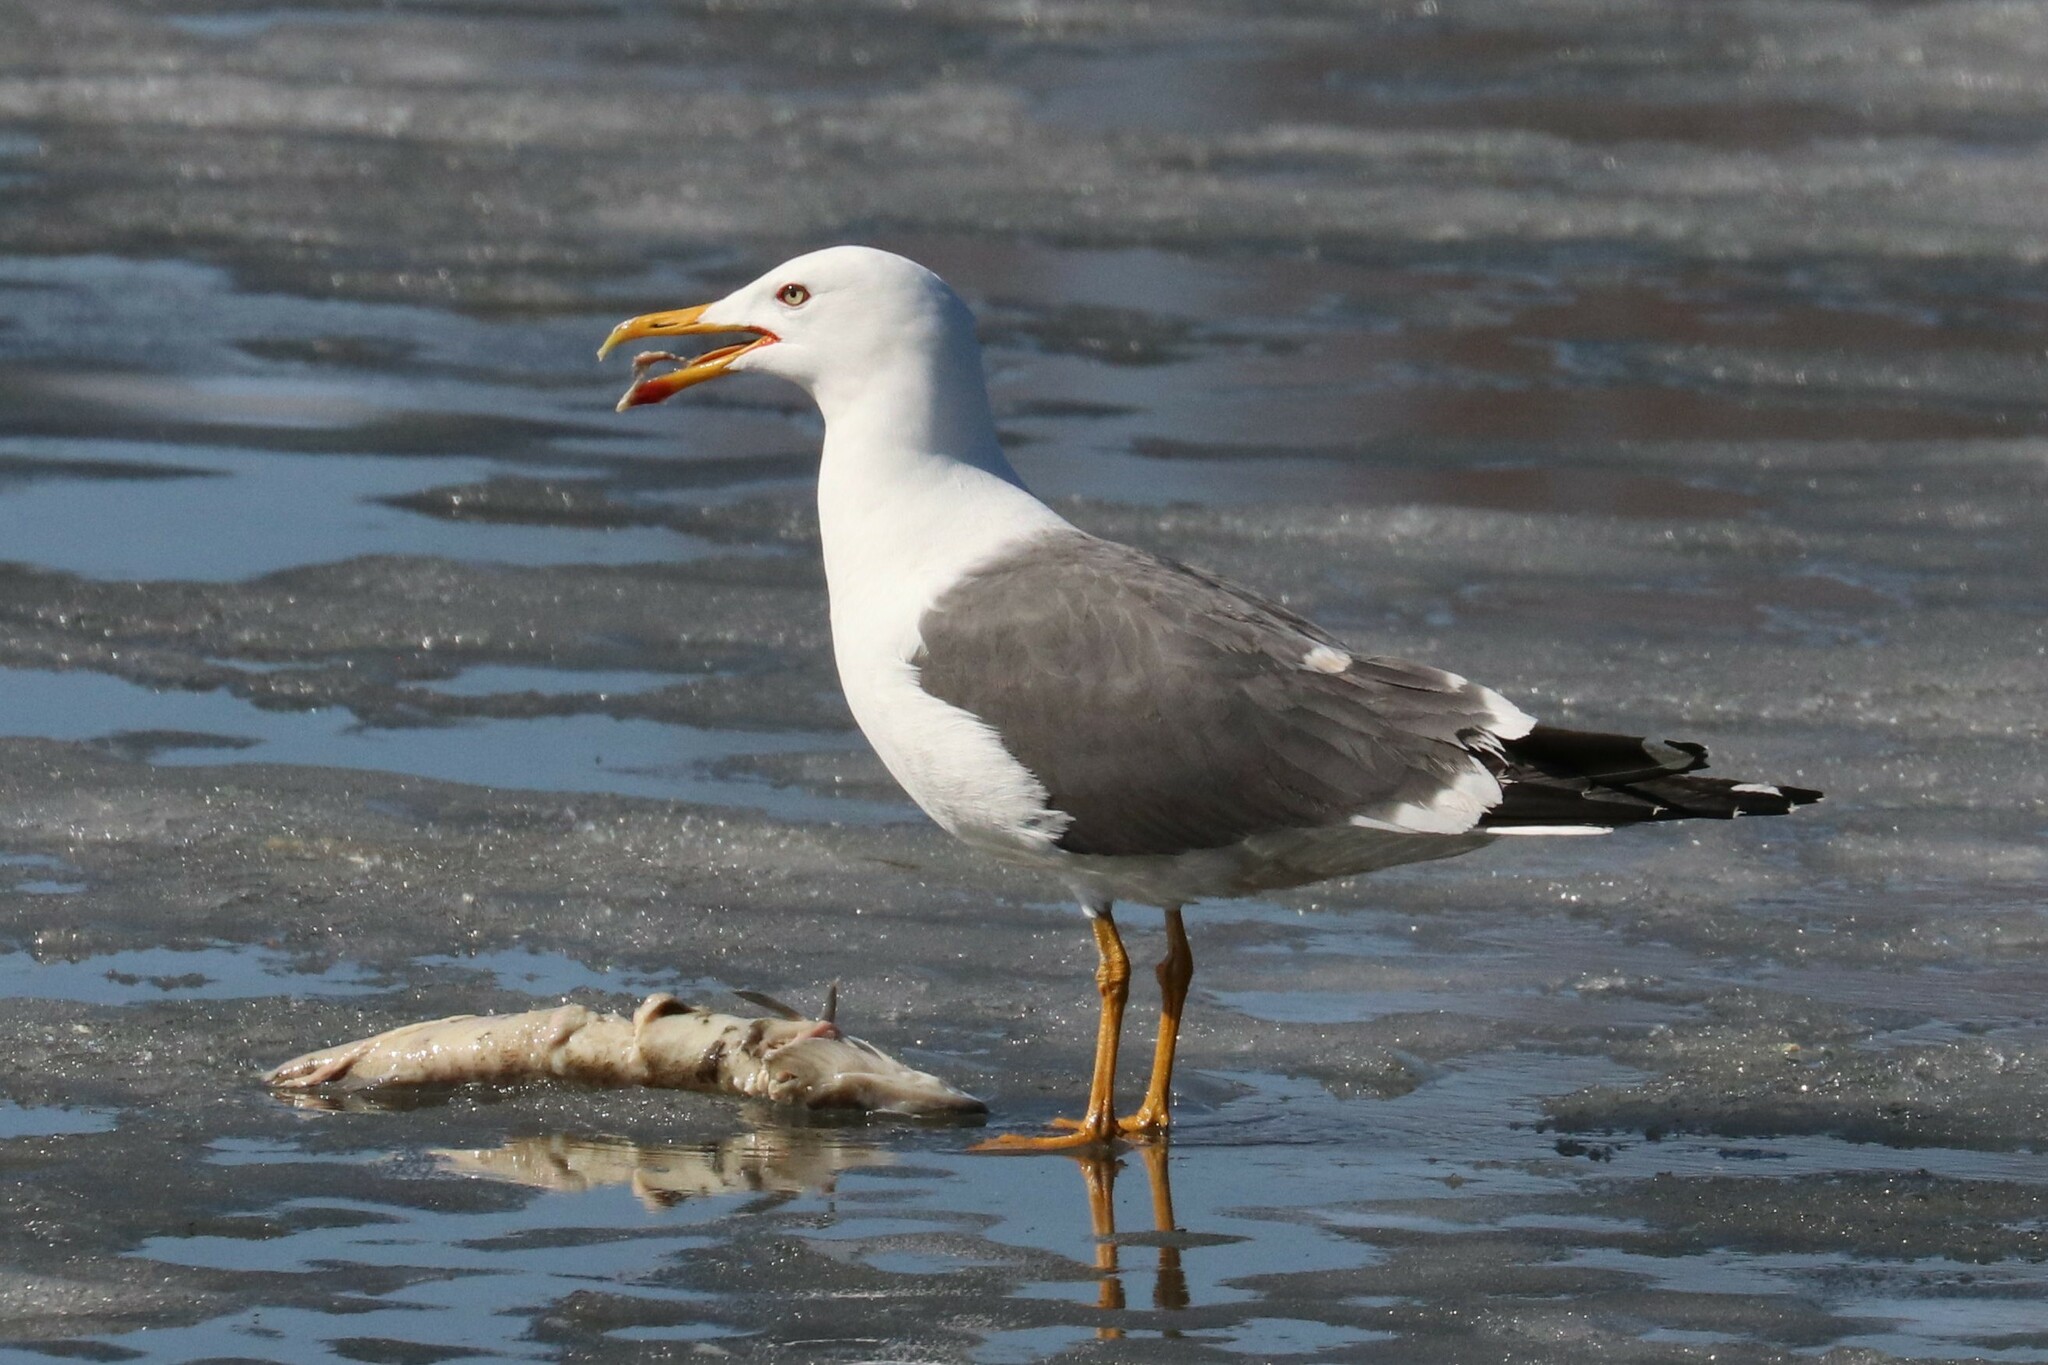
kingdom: Animalia
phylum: Chordata
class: Aves
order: Charadriiformes
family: Laridae
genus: Larus
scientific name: Larus fuscus
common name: Lesser black-backed gull
